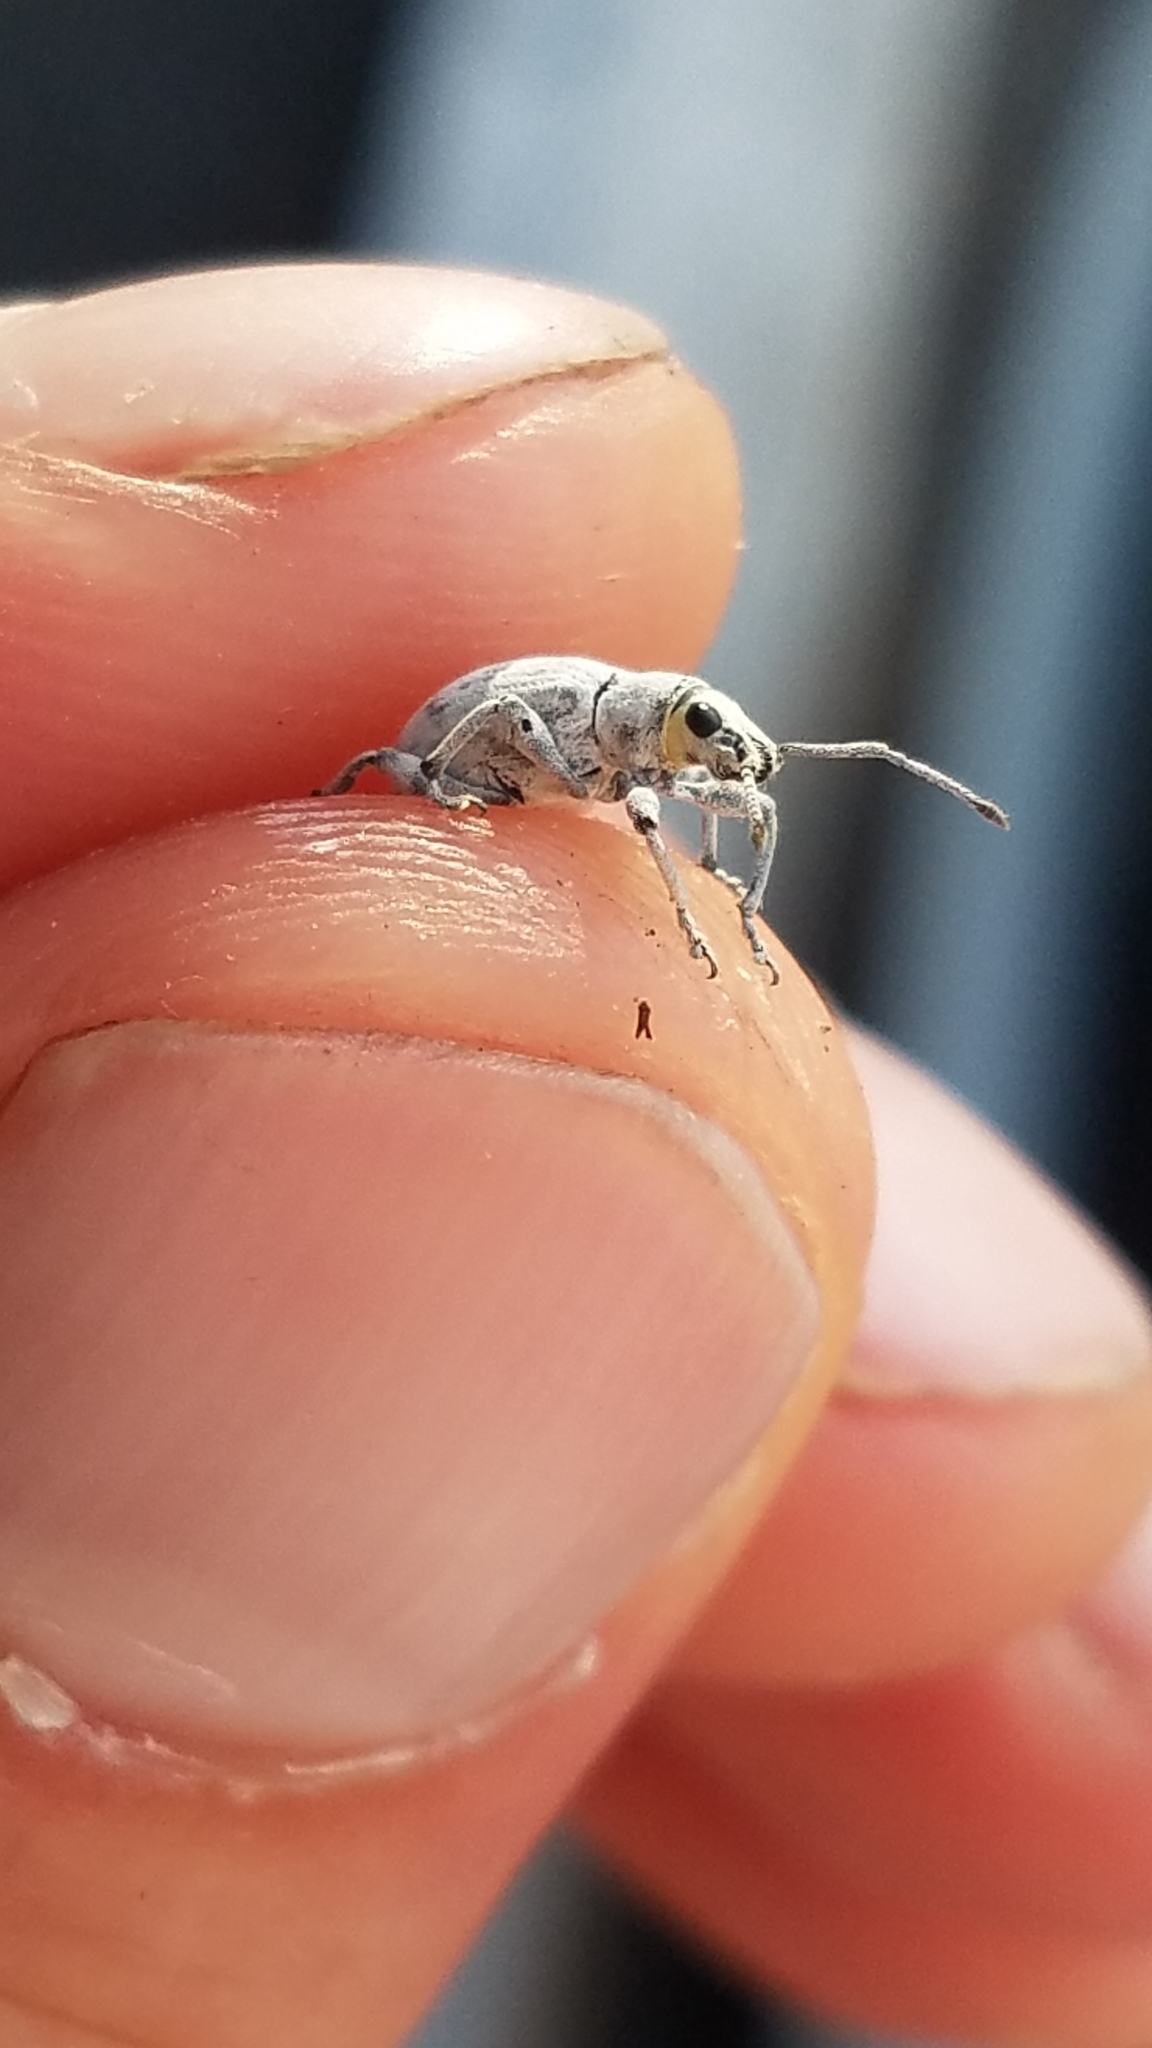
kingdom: Animalia
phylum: Arthropoda
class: Insecta
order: Coleoptera
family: Curculionidae
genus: Myllocerus
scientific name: Myllocerus undecimpustulatus
